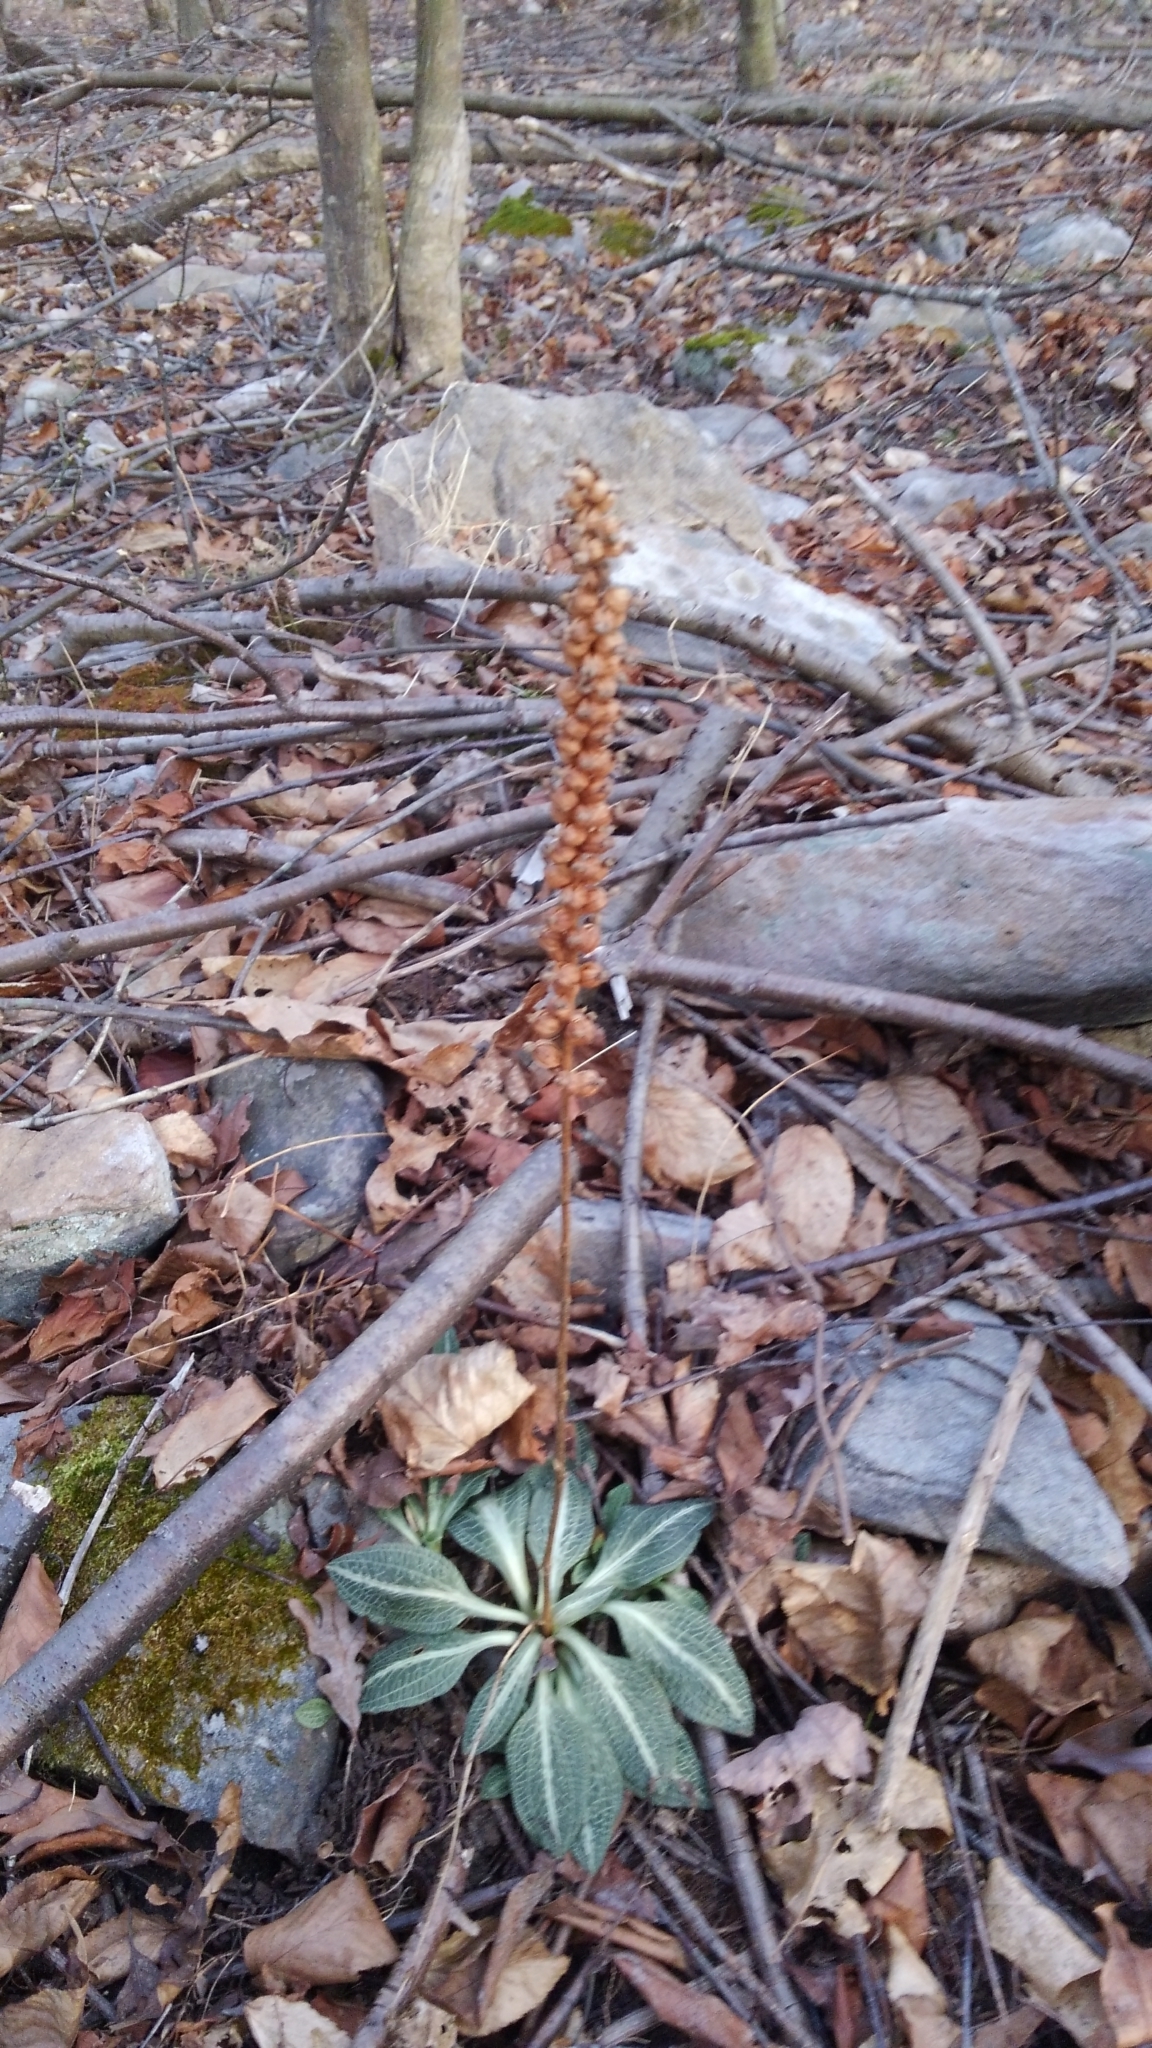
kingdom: Plantae
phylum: Tracheophyta
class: Liliopsida
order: Asparagales
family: Orchidaceae
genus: Goodyera
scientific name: Goodyera pubescens
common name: Downy rattlesnake-plantain
